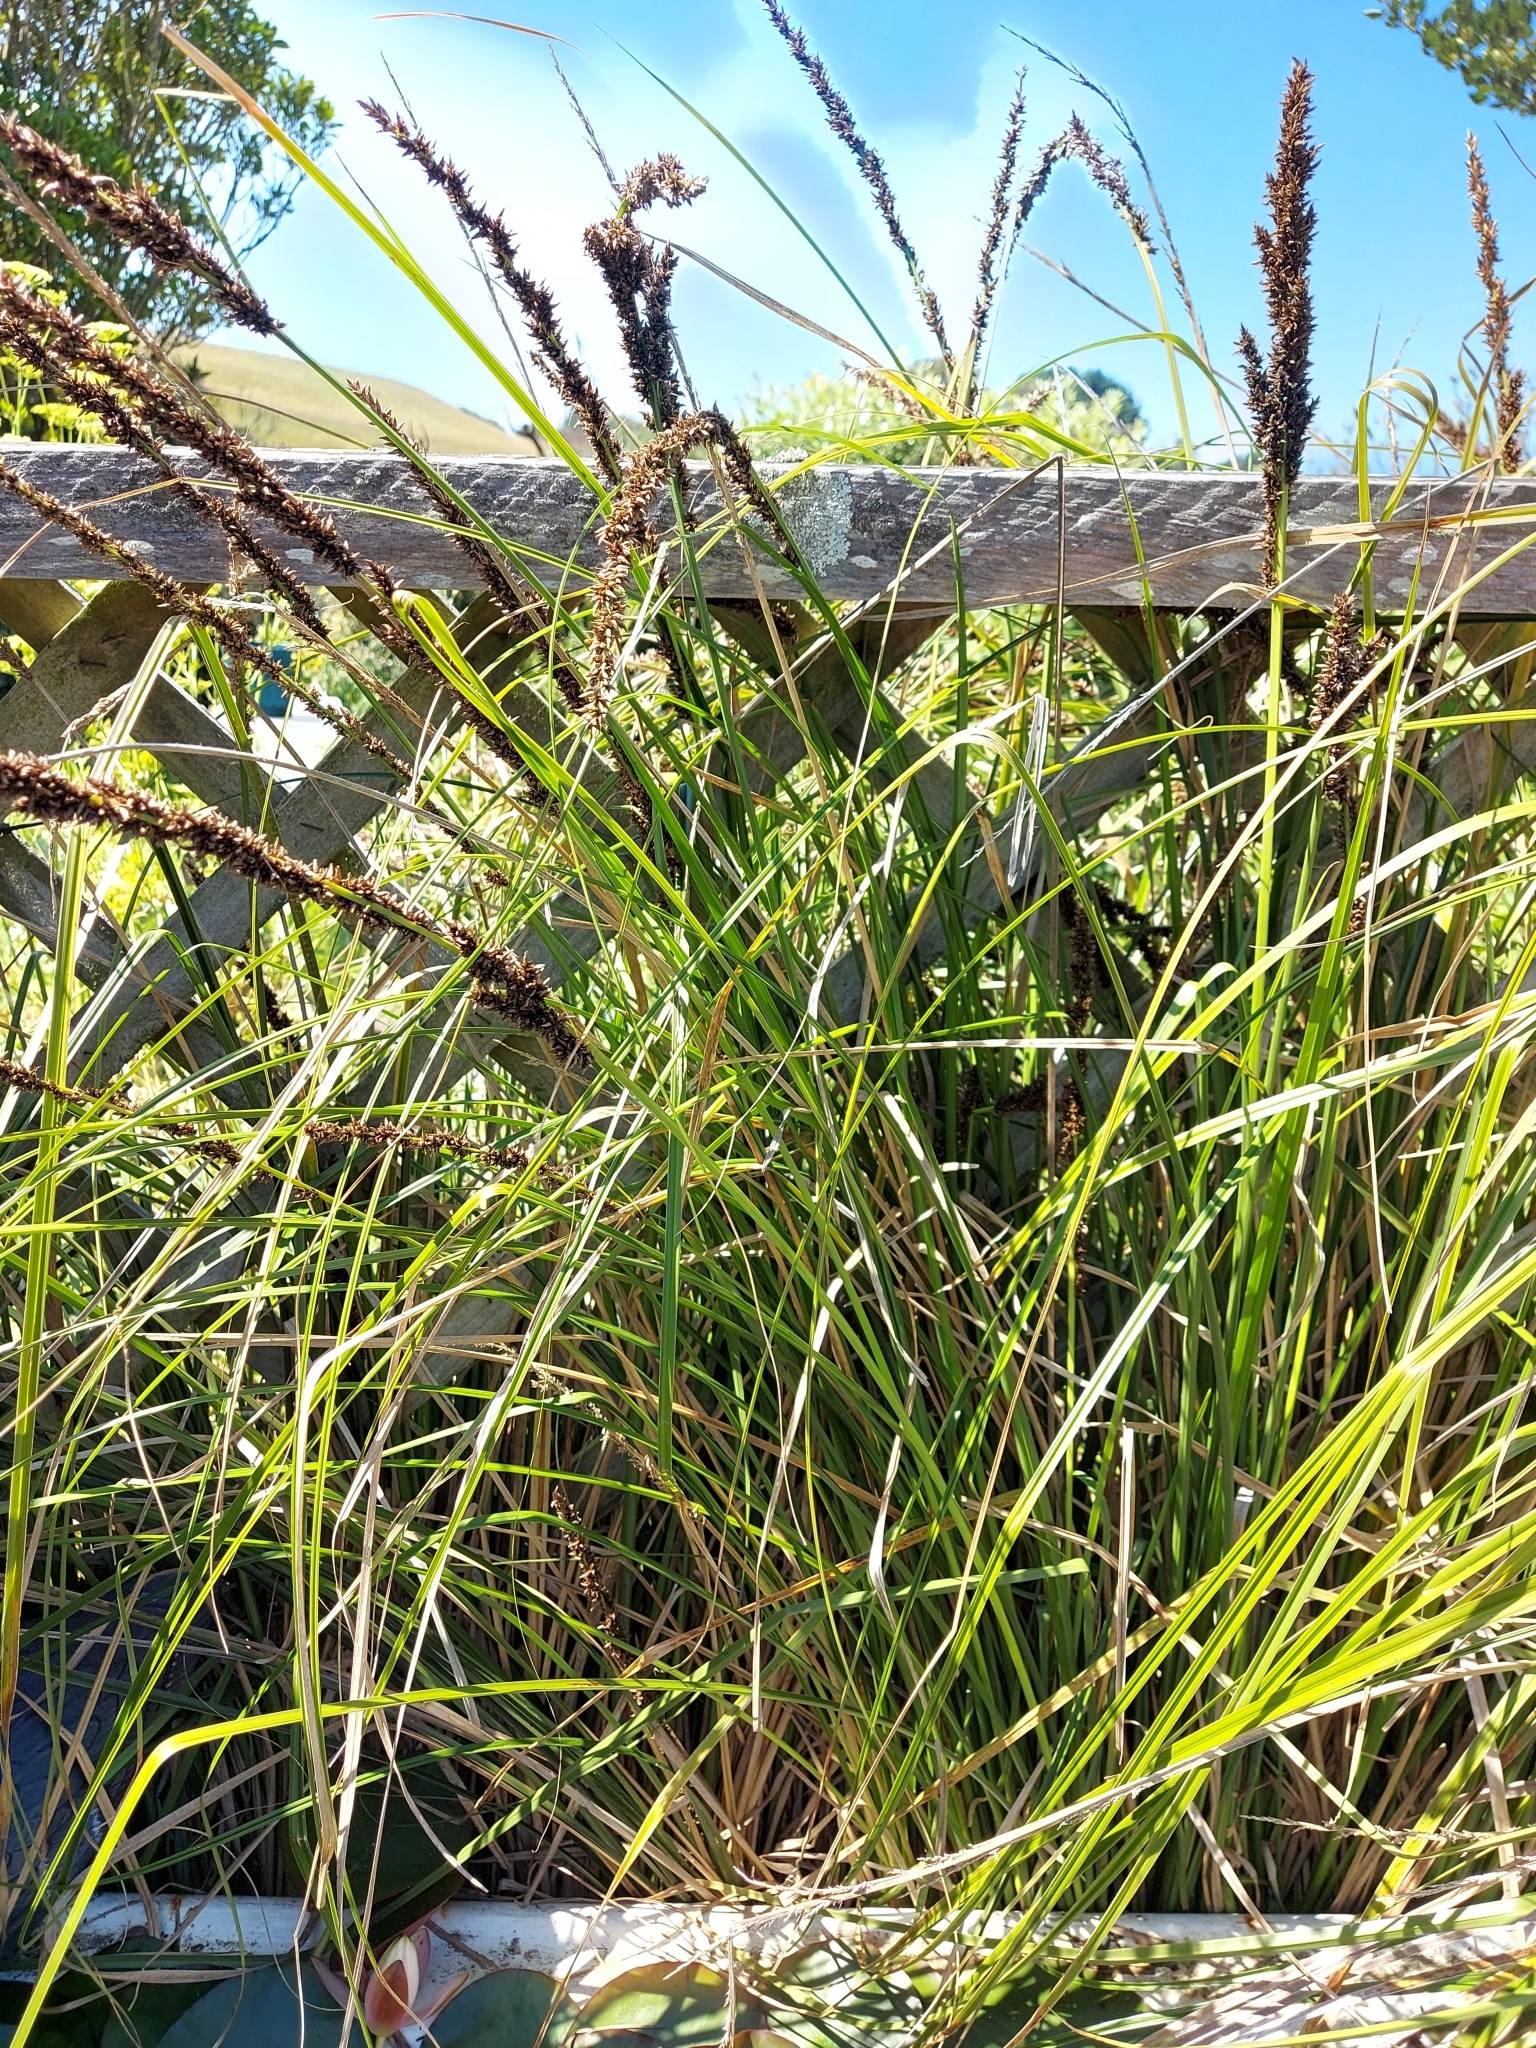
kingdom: Plantae
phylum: Tracheophyta
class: Liliopsida
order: Poales
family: Cyperaceae
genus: Carex
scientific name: Carex appressa
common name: Tussock sedge
